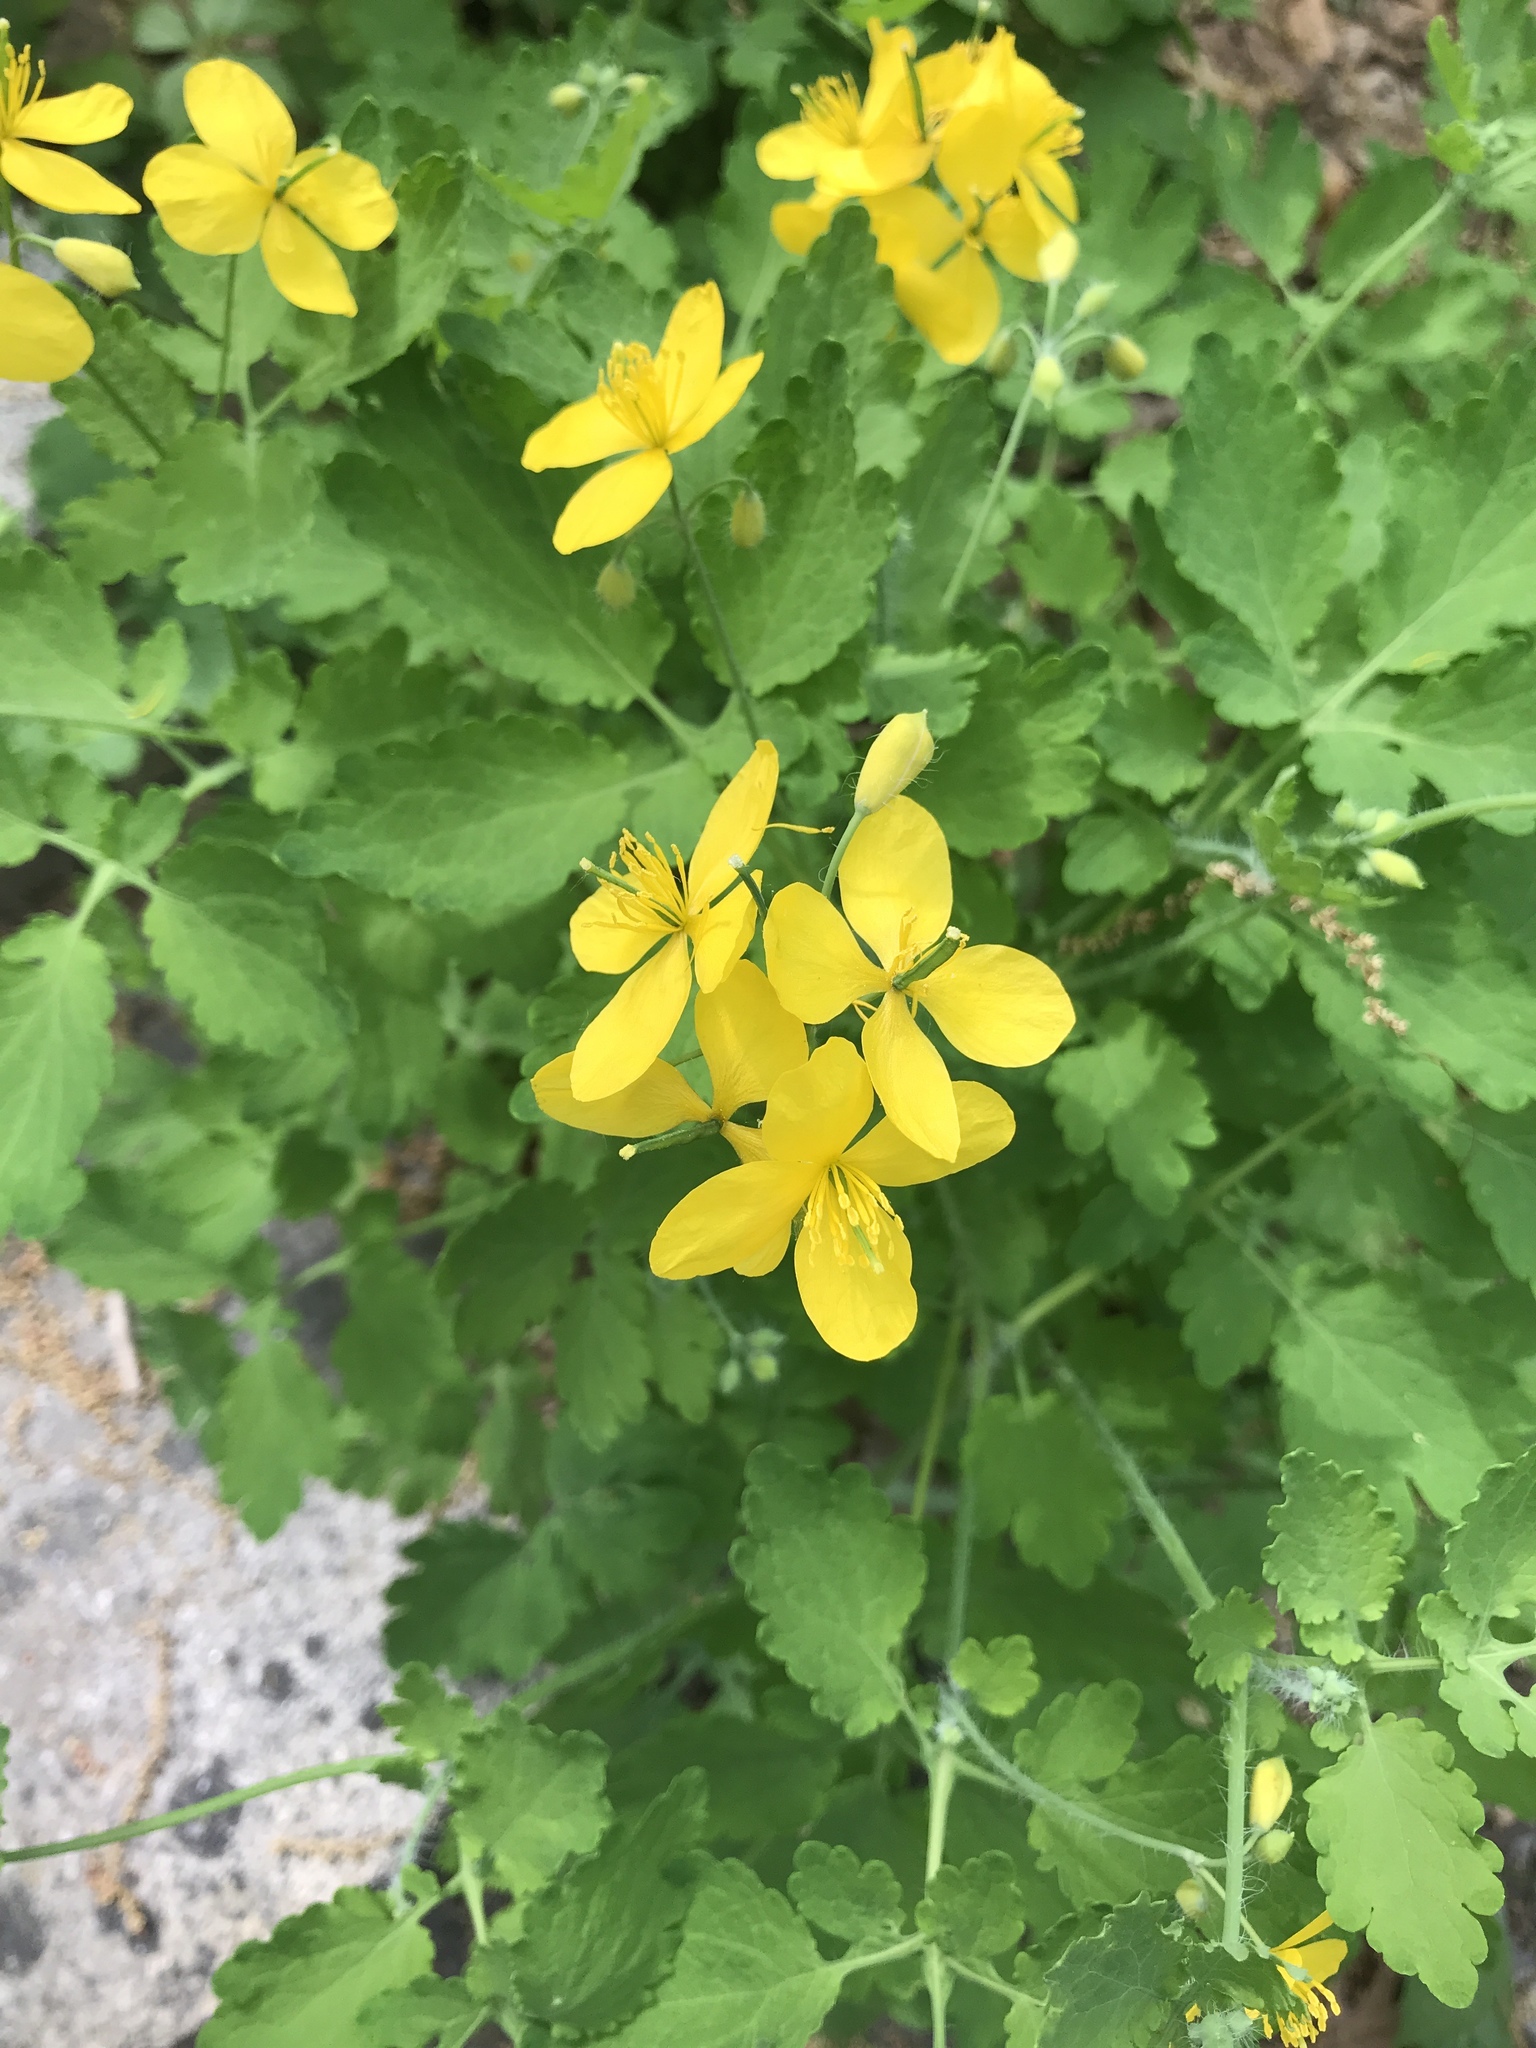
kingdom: Plantae
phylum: Tracheophyta
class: Magnoliopsida
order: Ranunculales
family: Papaveraceae
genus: Chelidonium
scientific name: Chelidonium majus
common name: Greater celandine
